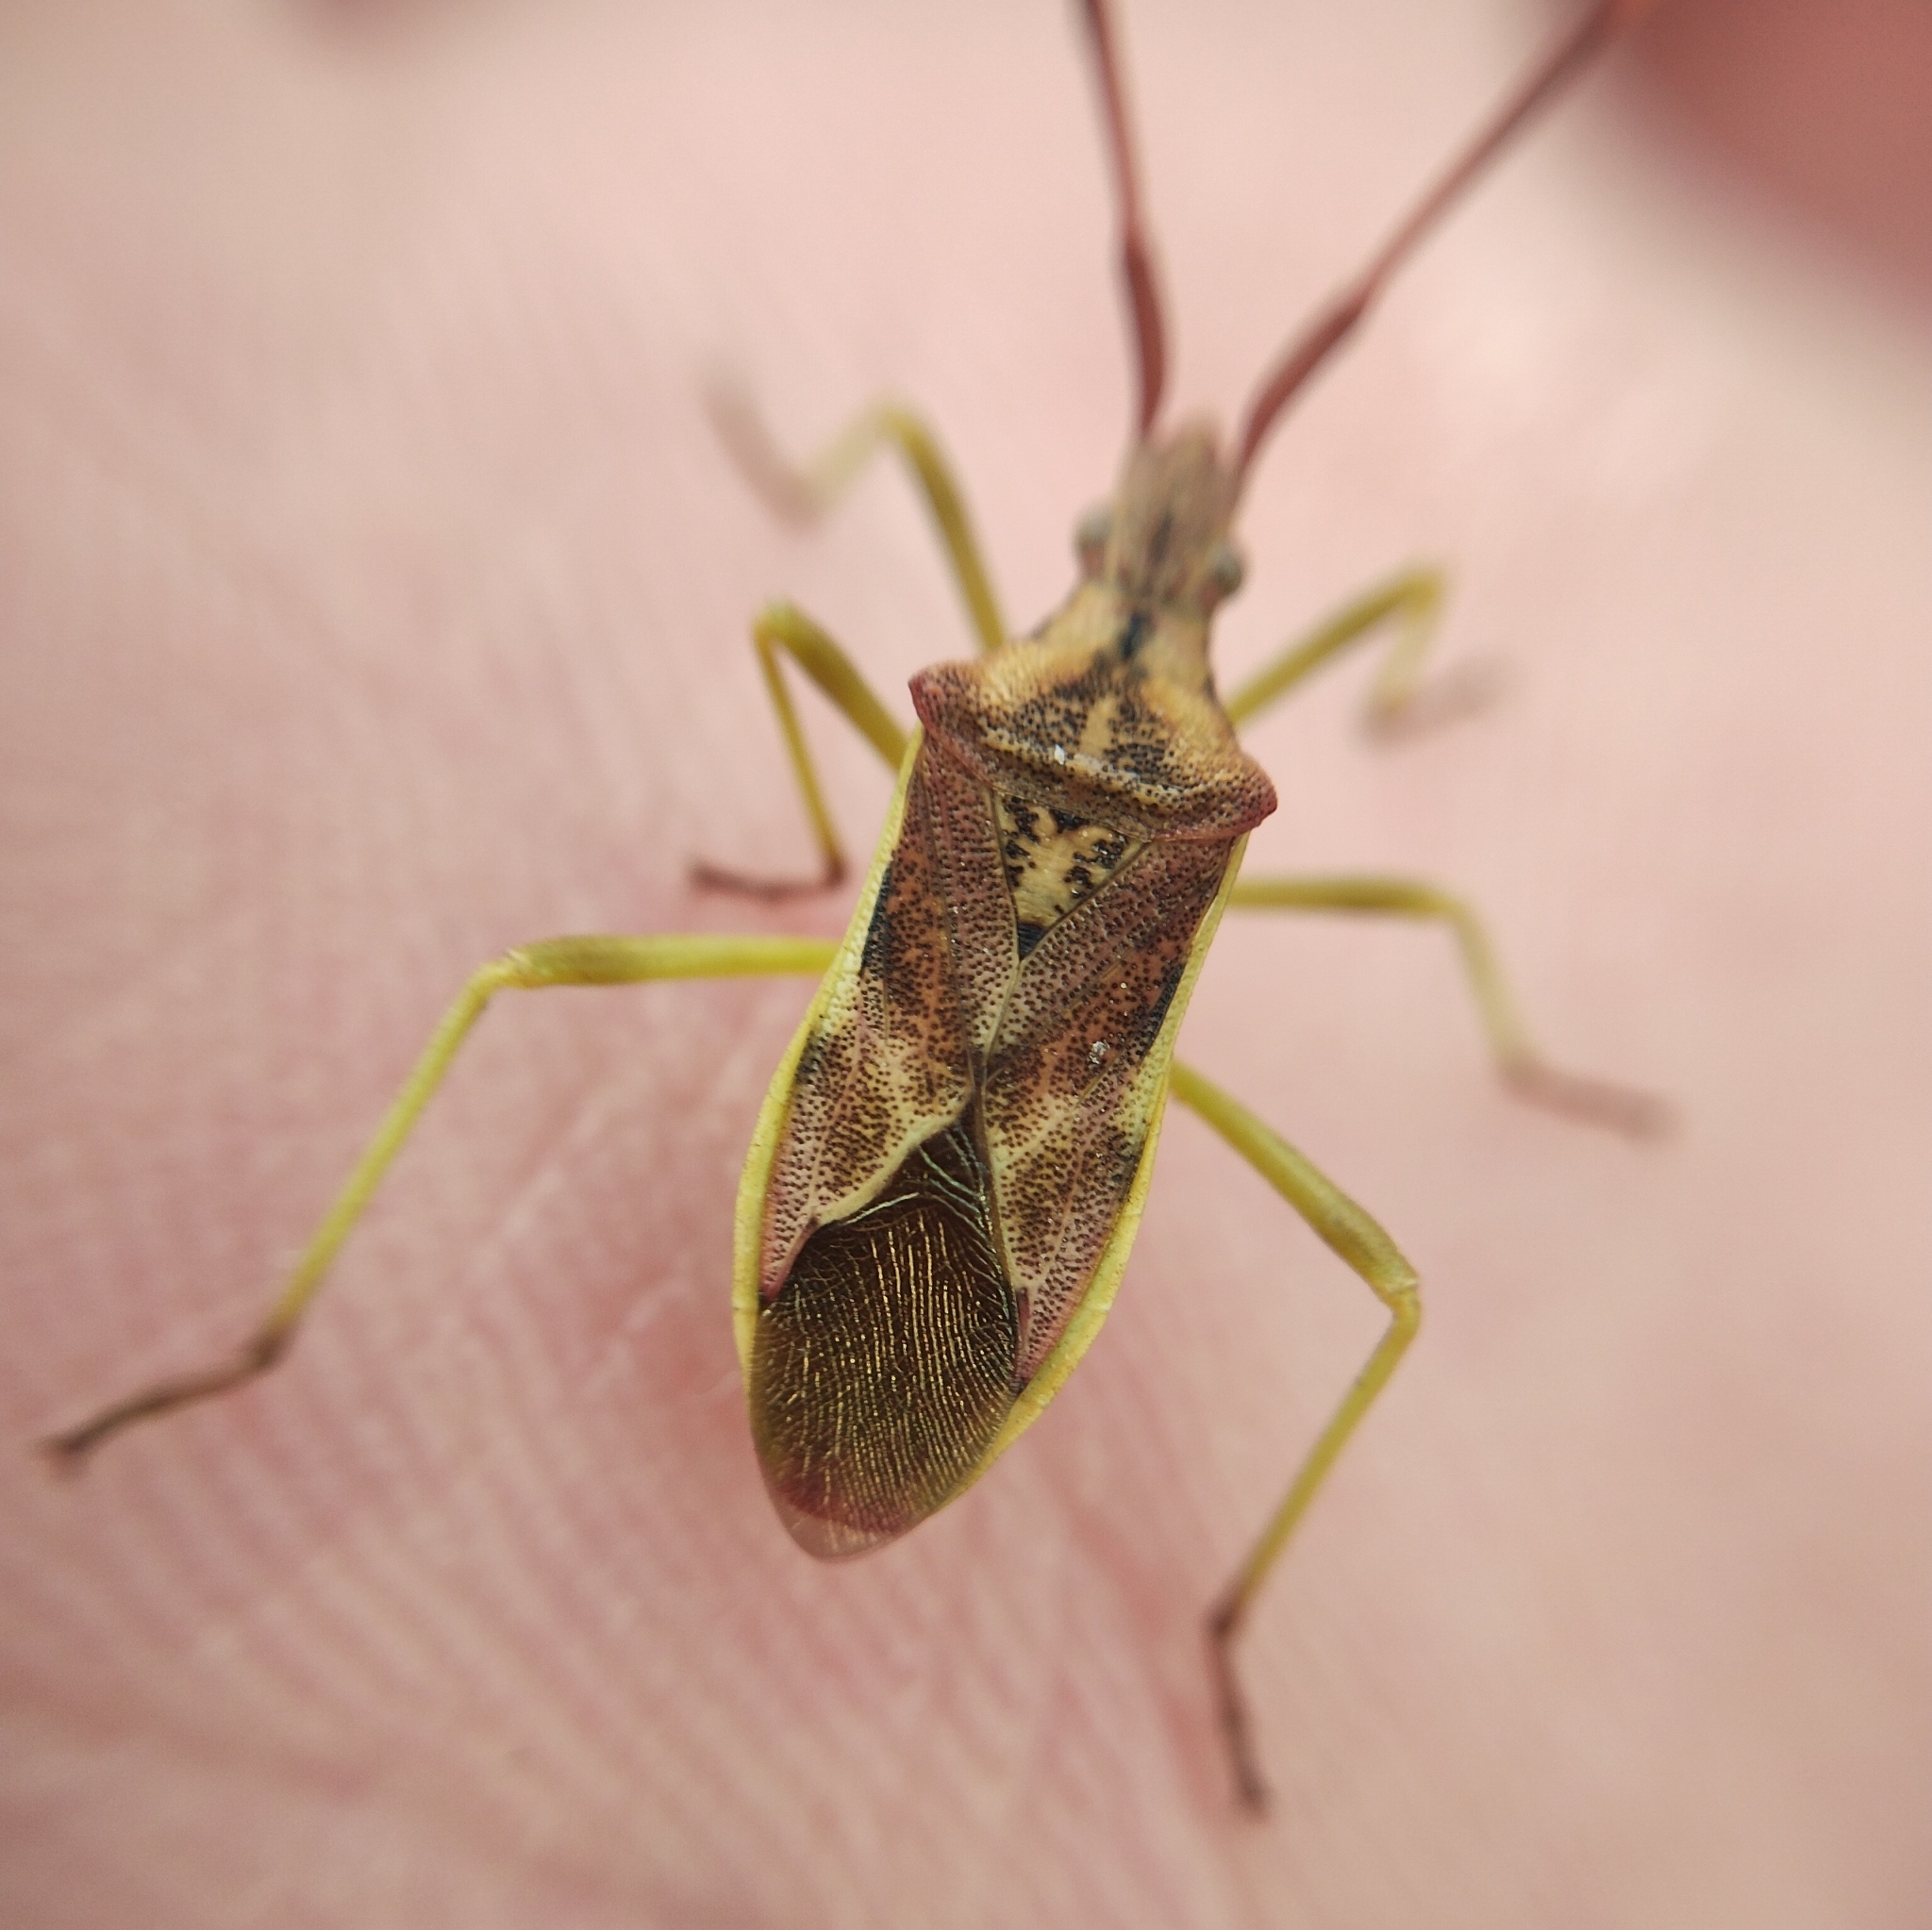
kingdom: Animalia
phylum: Arthropoda
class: Insecta
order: Hemiptera
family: Coreidae
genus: Gonocerus
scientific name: Gonocerus juniperi
